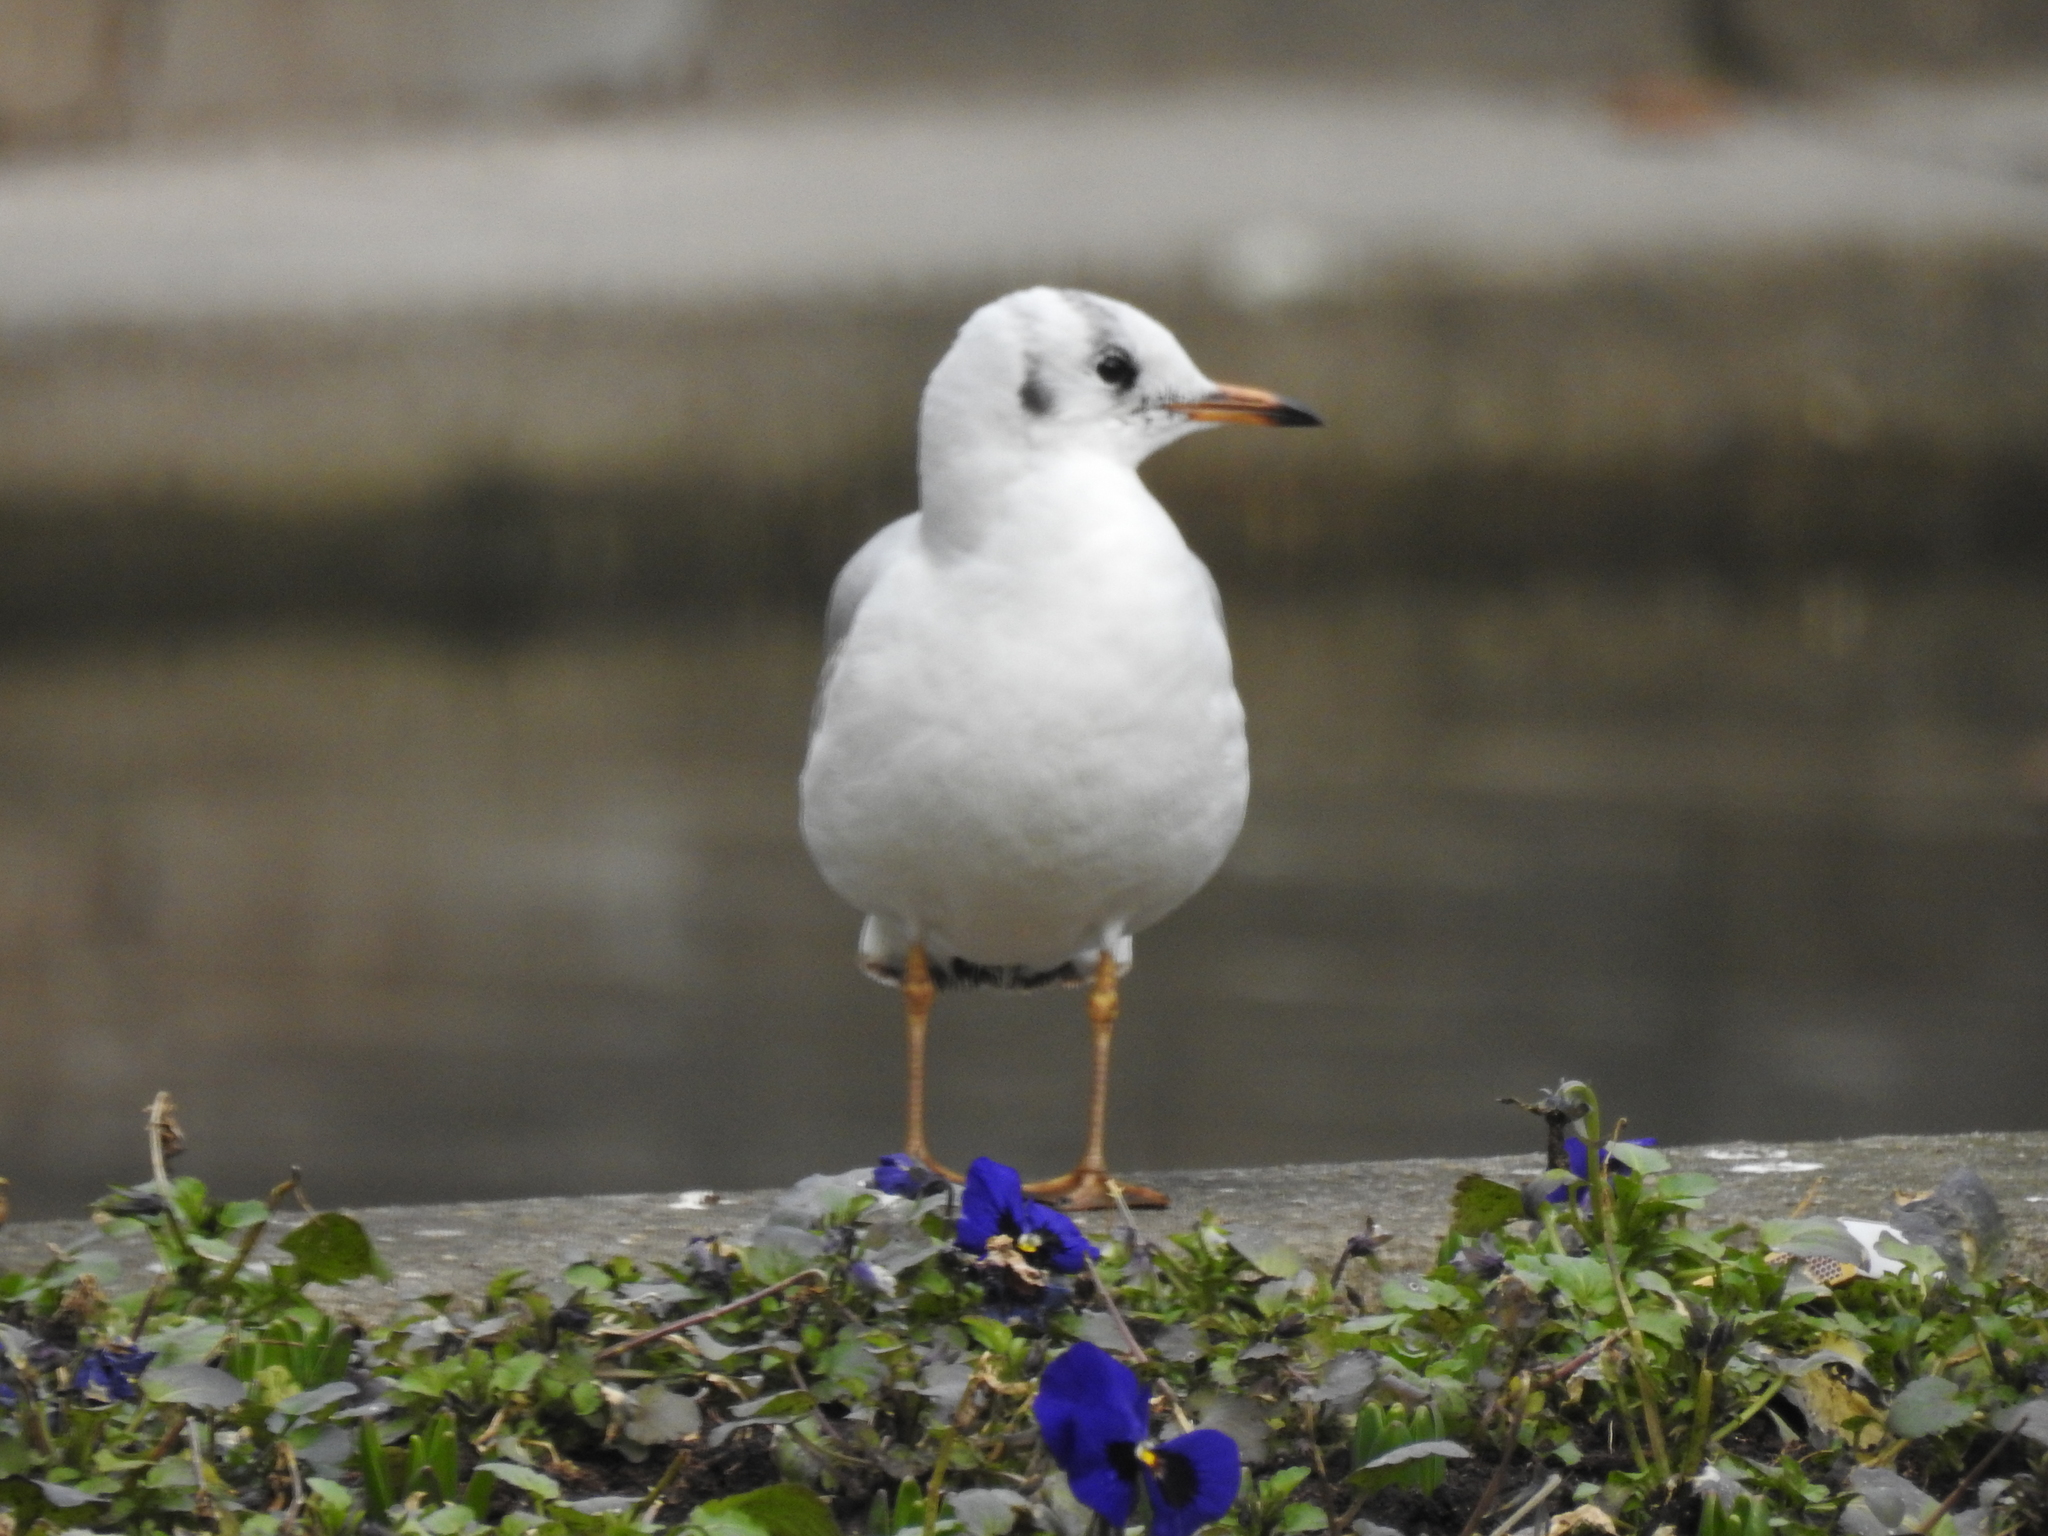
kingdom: Animalia
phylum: Chordata
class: Aves
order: Charadriiformes
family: Laridae
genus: Chroicocephalus
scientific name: Chroicocephalus ridibundus
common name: Black-headed gull
